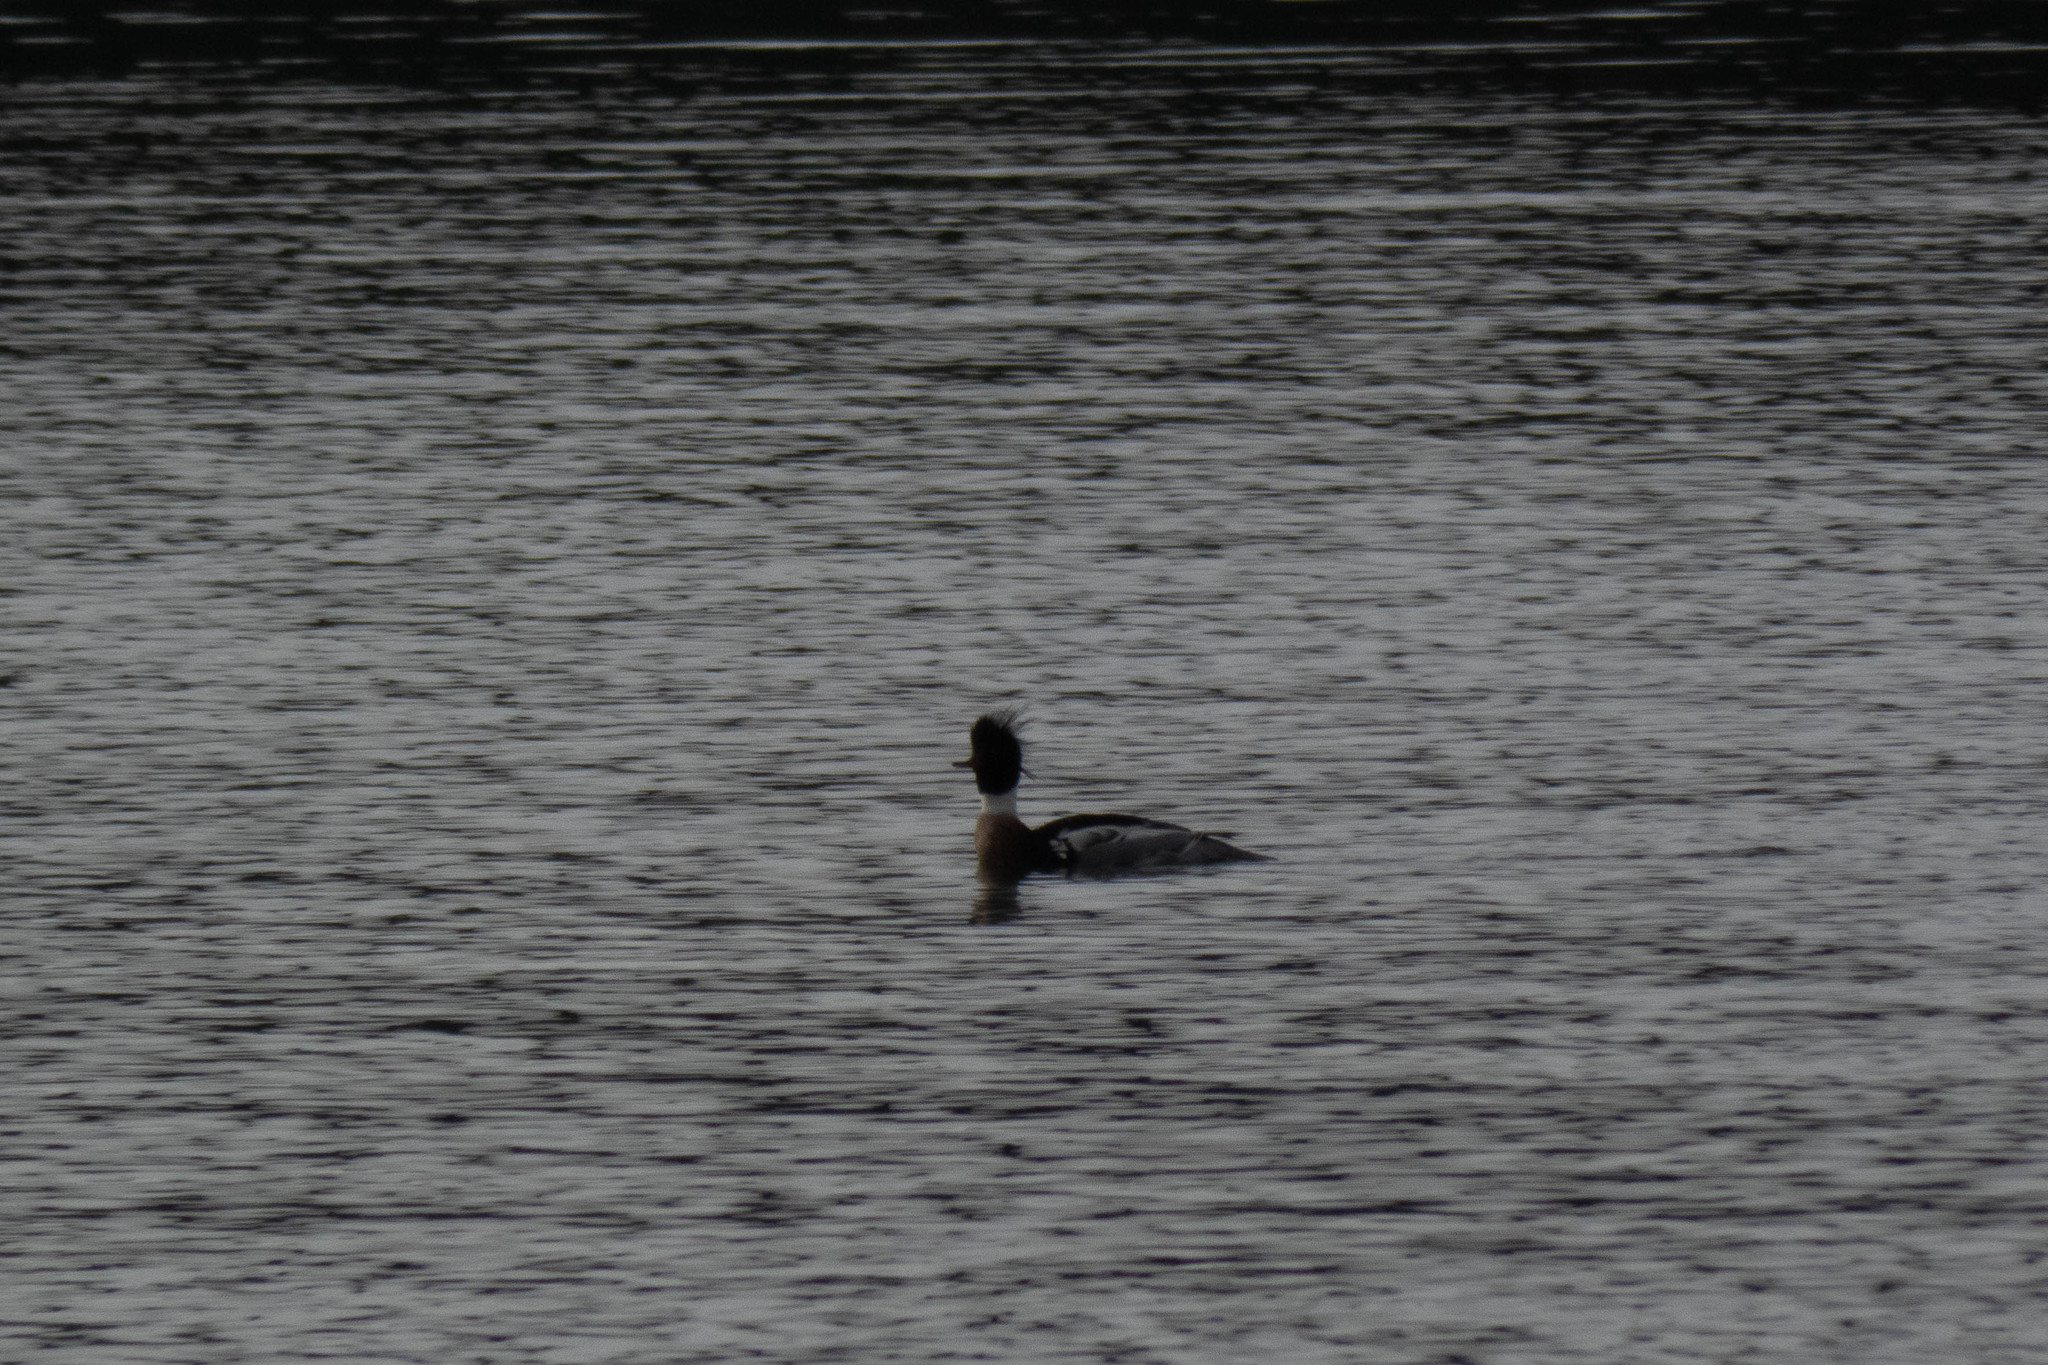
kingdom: Animalia
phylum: Chordata
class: Aves
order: Anseriformes
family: Anatidae
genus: Mergus
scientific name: Mergus serrator
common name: Red-breasted merganser
